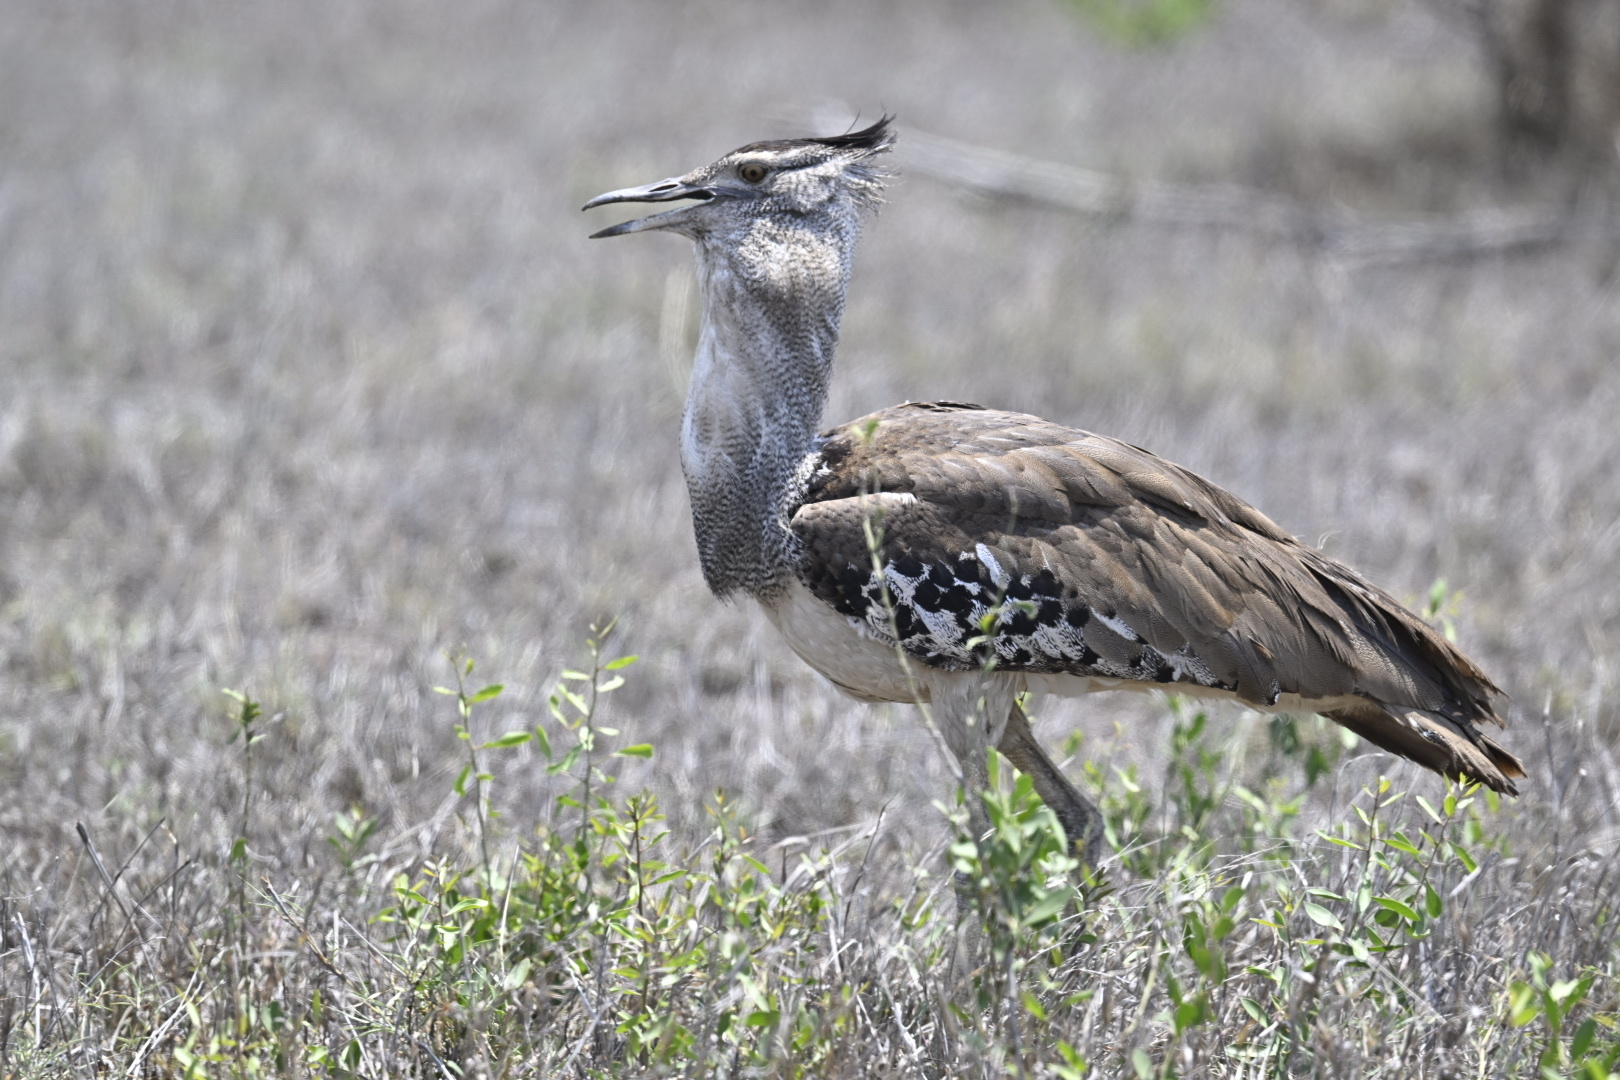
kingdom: Animalia
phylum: Chordata
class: Aves
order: Otidiformes
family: Otididae
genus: Ardeotis
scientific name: Ardeotis kori
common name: Kori bustard
